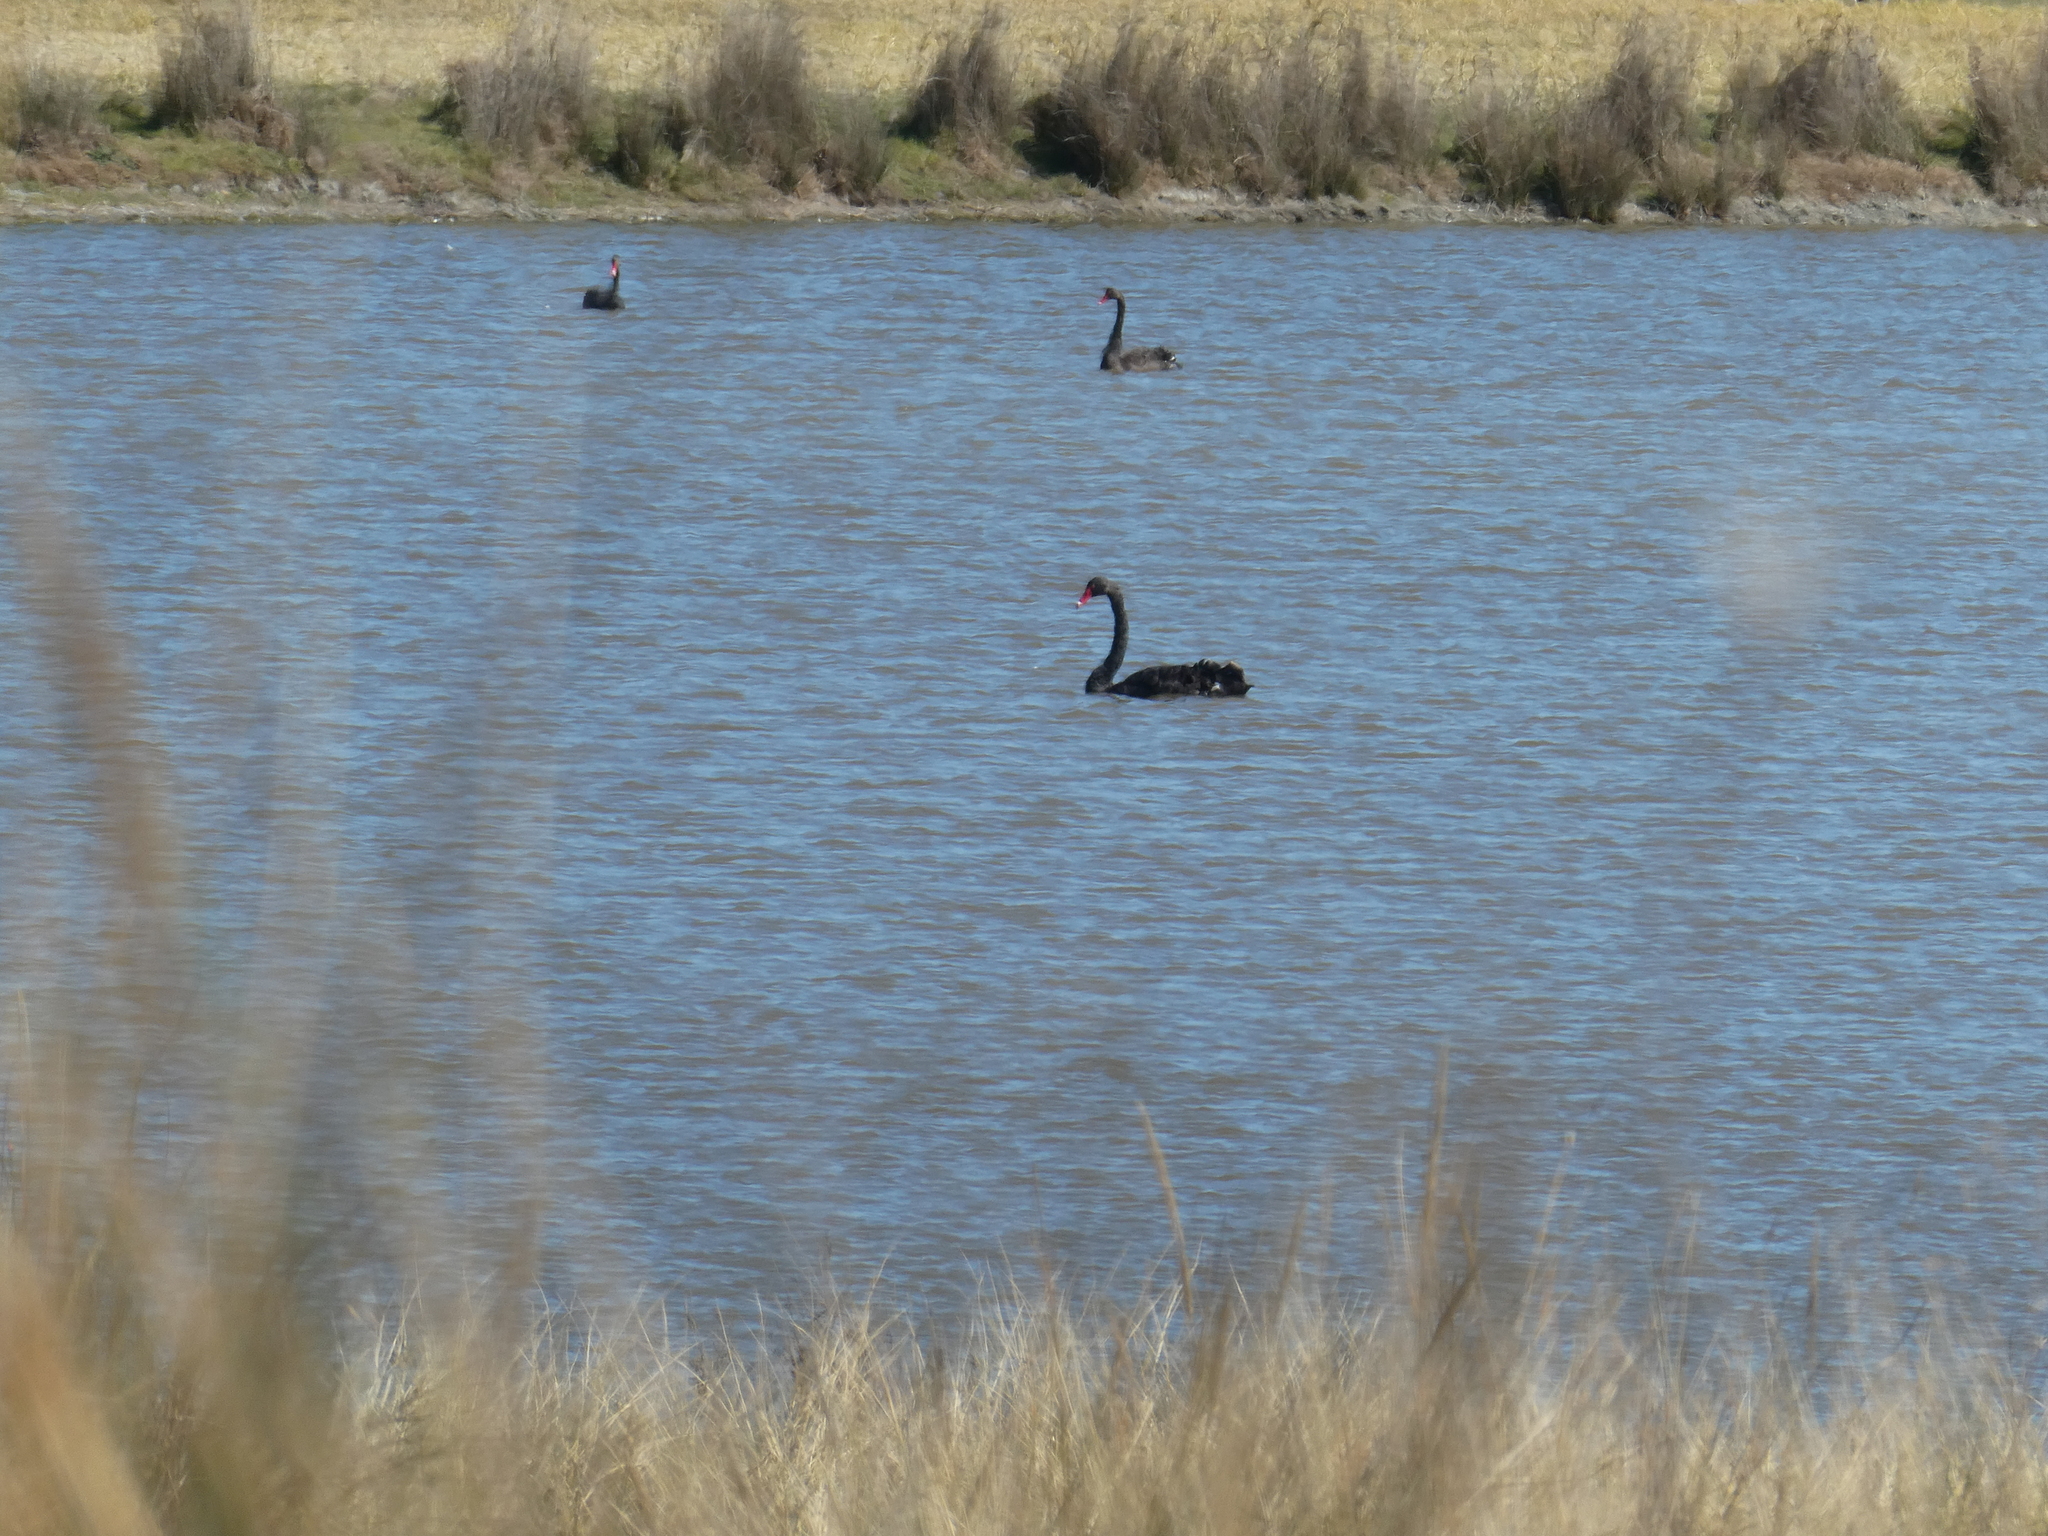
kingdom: Animalia
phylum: Chordata
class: Aves
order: Anseriformes
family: Anatidae
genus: Cygnus
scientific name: Cygnus atratus
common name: Black swan
